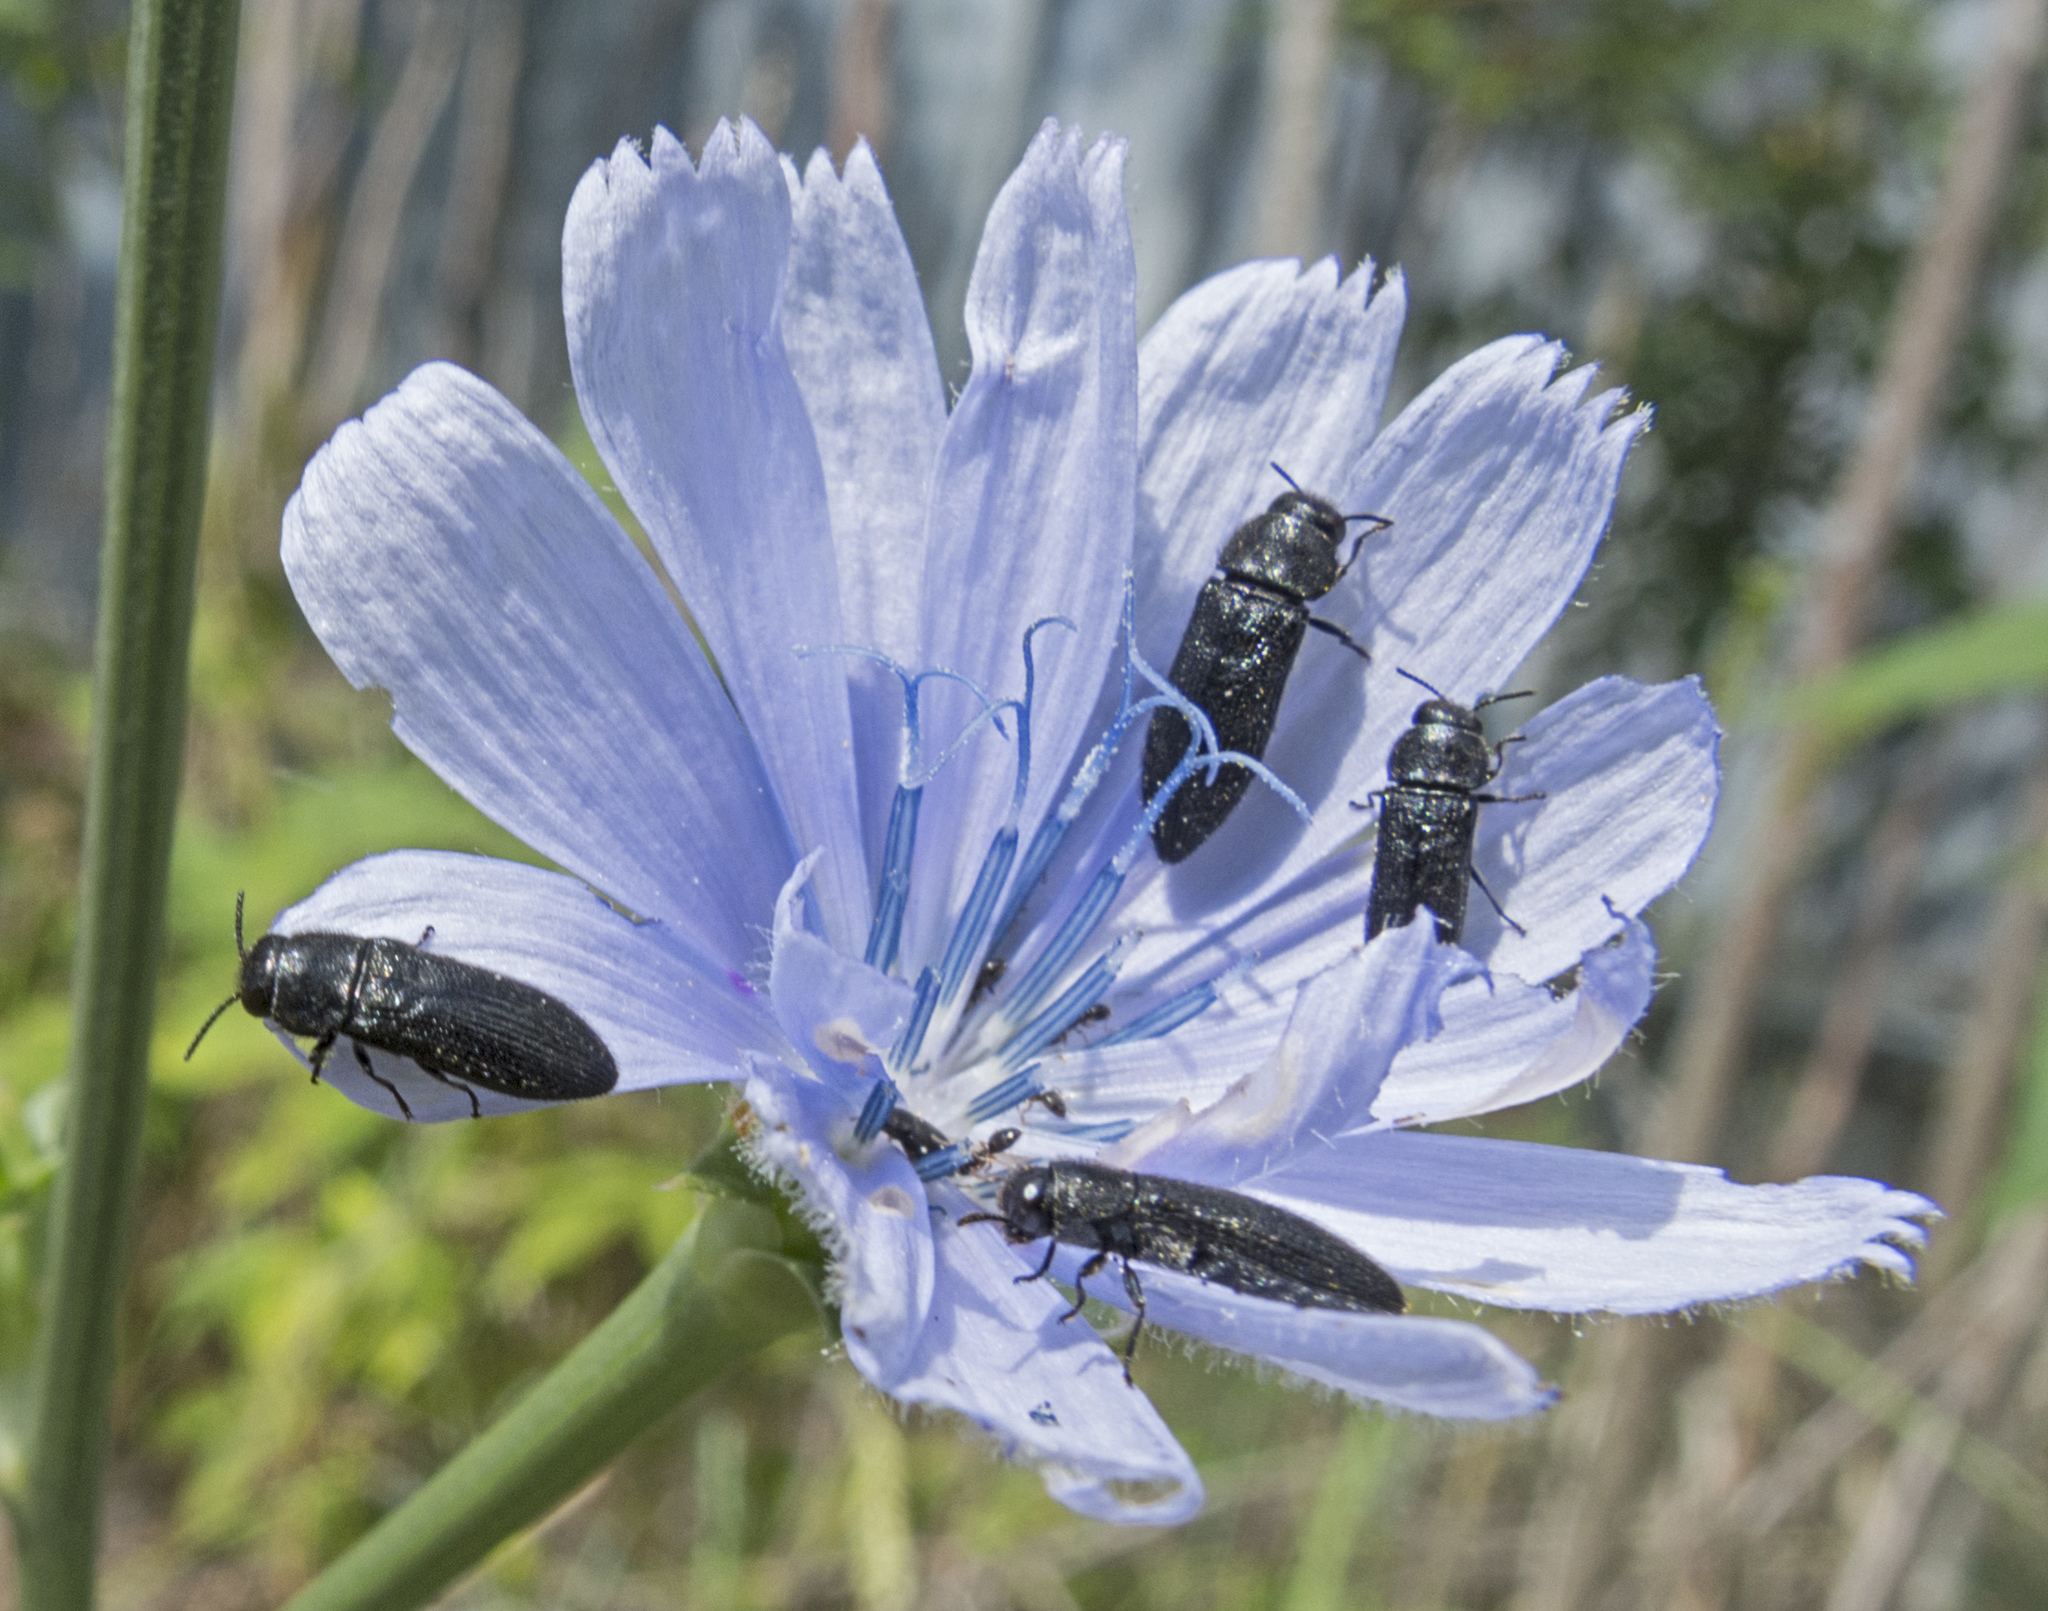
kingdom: Animalia
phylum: Arthropoda
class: Insecta
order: Coleoptera
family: Buprestidae
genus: Acmaeodera
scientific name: Acmaeodera crinita
